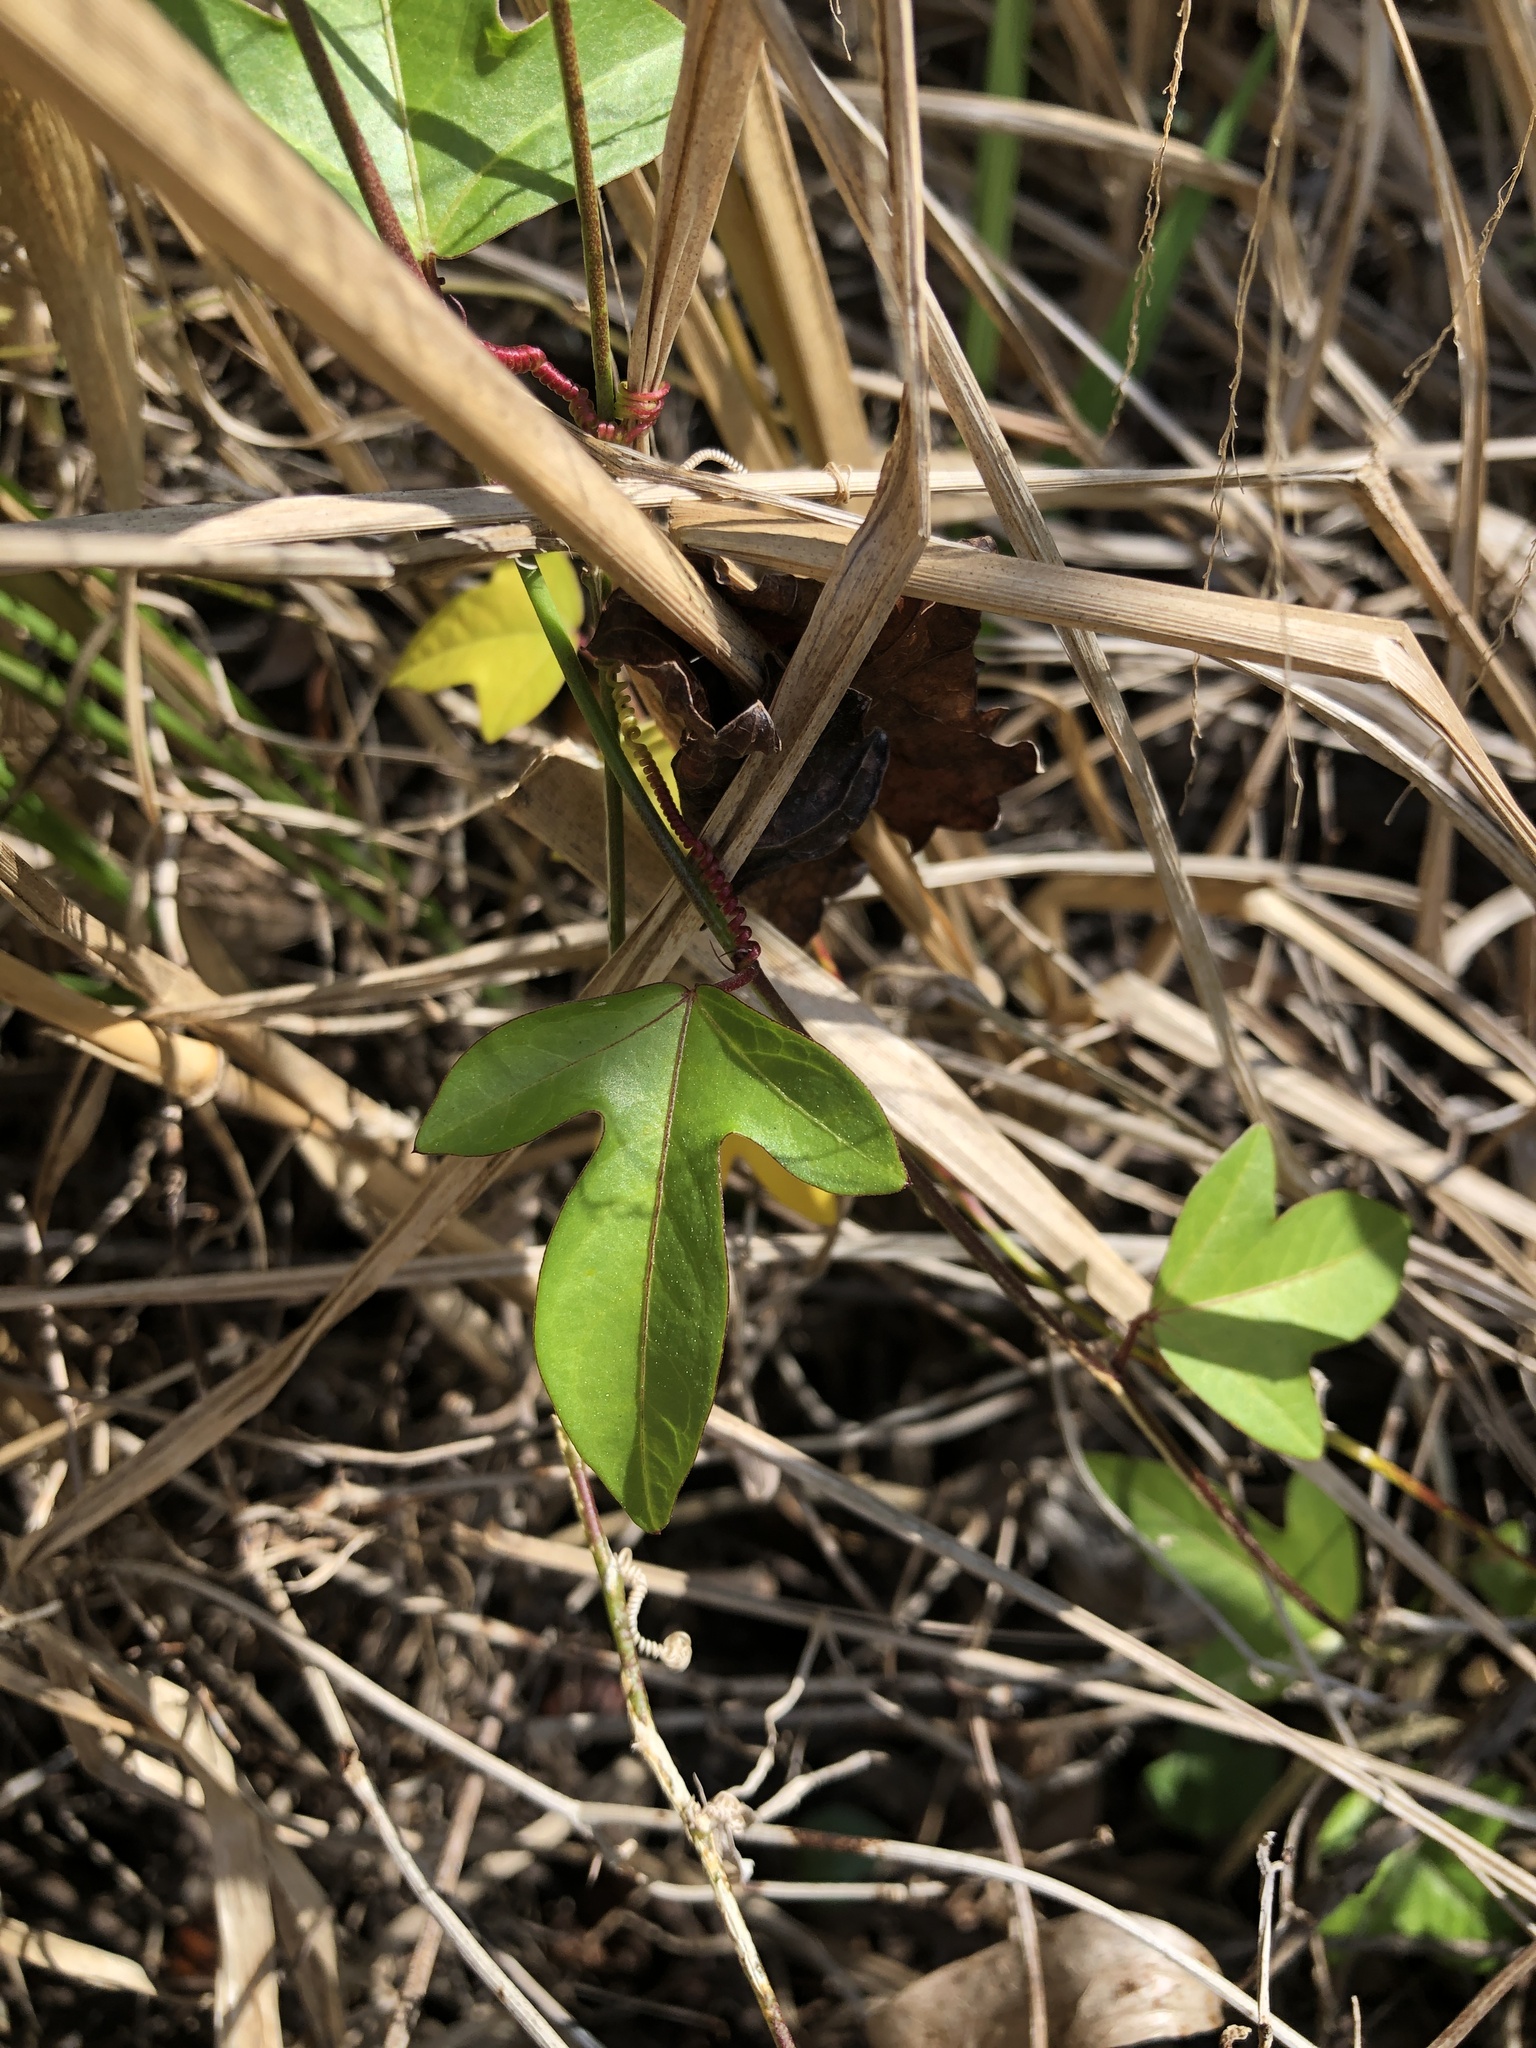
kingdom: Plantae
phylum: Tracheophyta
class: Magnoliopsida
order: Malpighiales
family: Passifloraceae
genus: Passiflora
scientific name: Passiflora pallida
